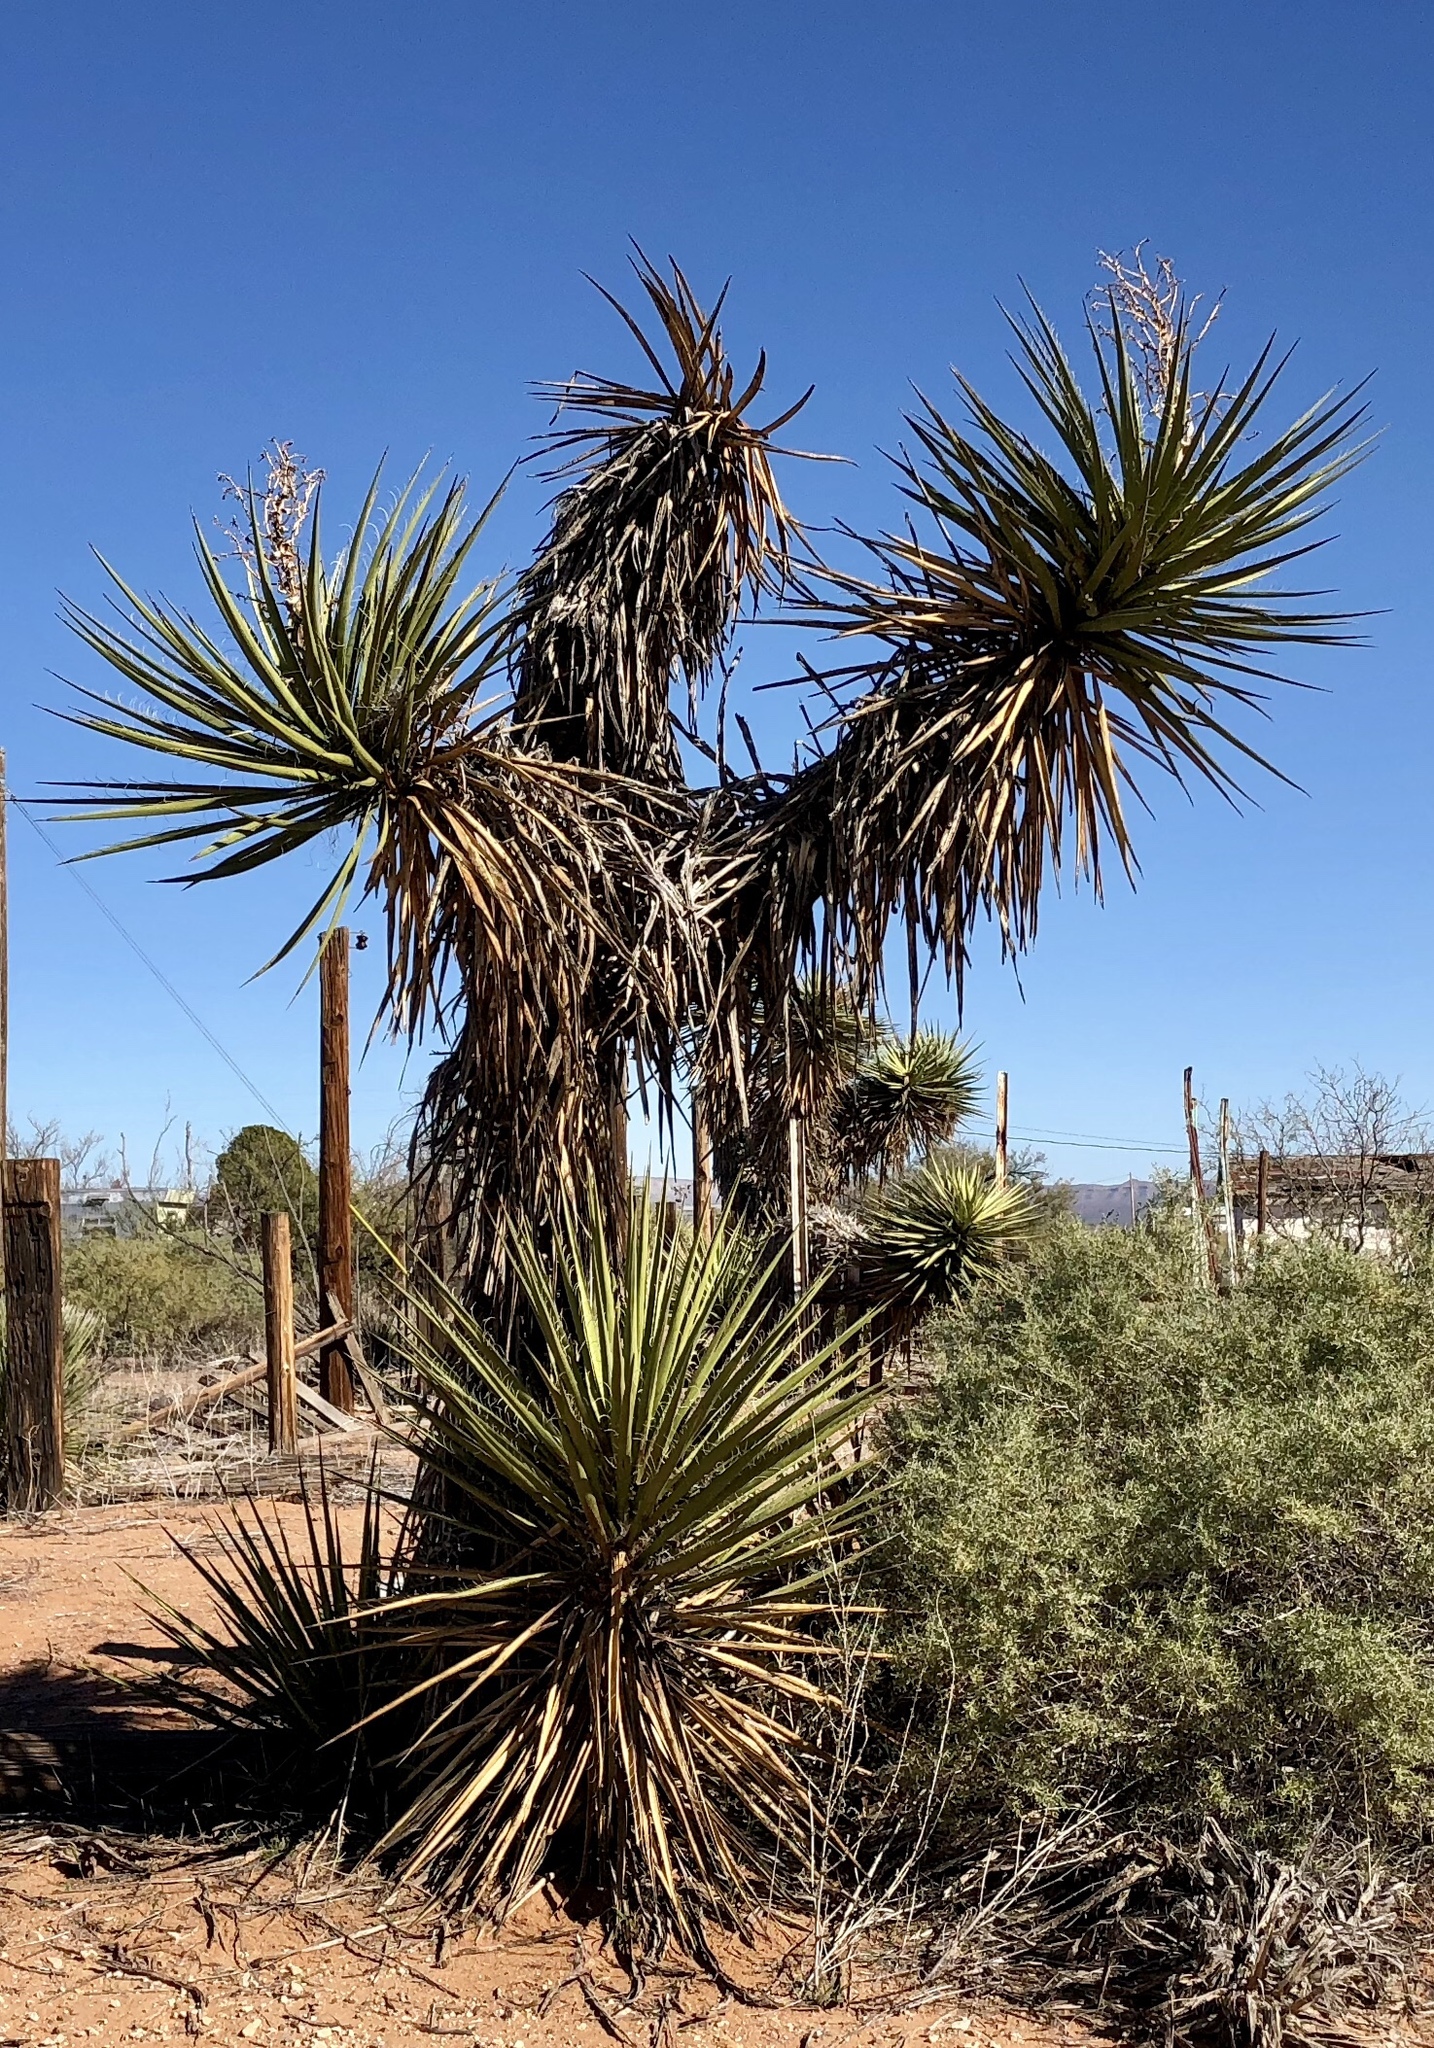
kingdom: Plantae
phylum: Tracheophyta
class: Liliopsida
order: Asparagales
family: Asparagaceae
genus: Yucca
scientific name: Yucca treculiana
